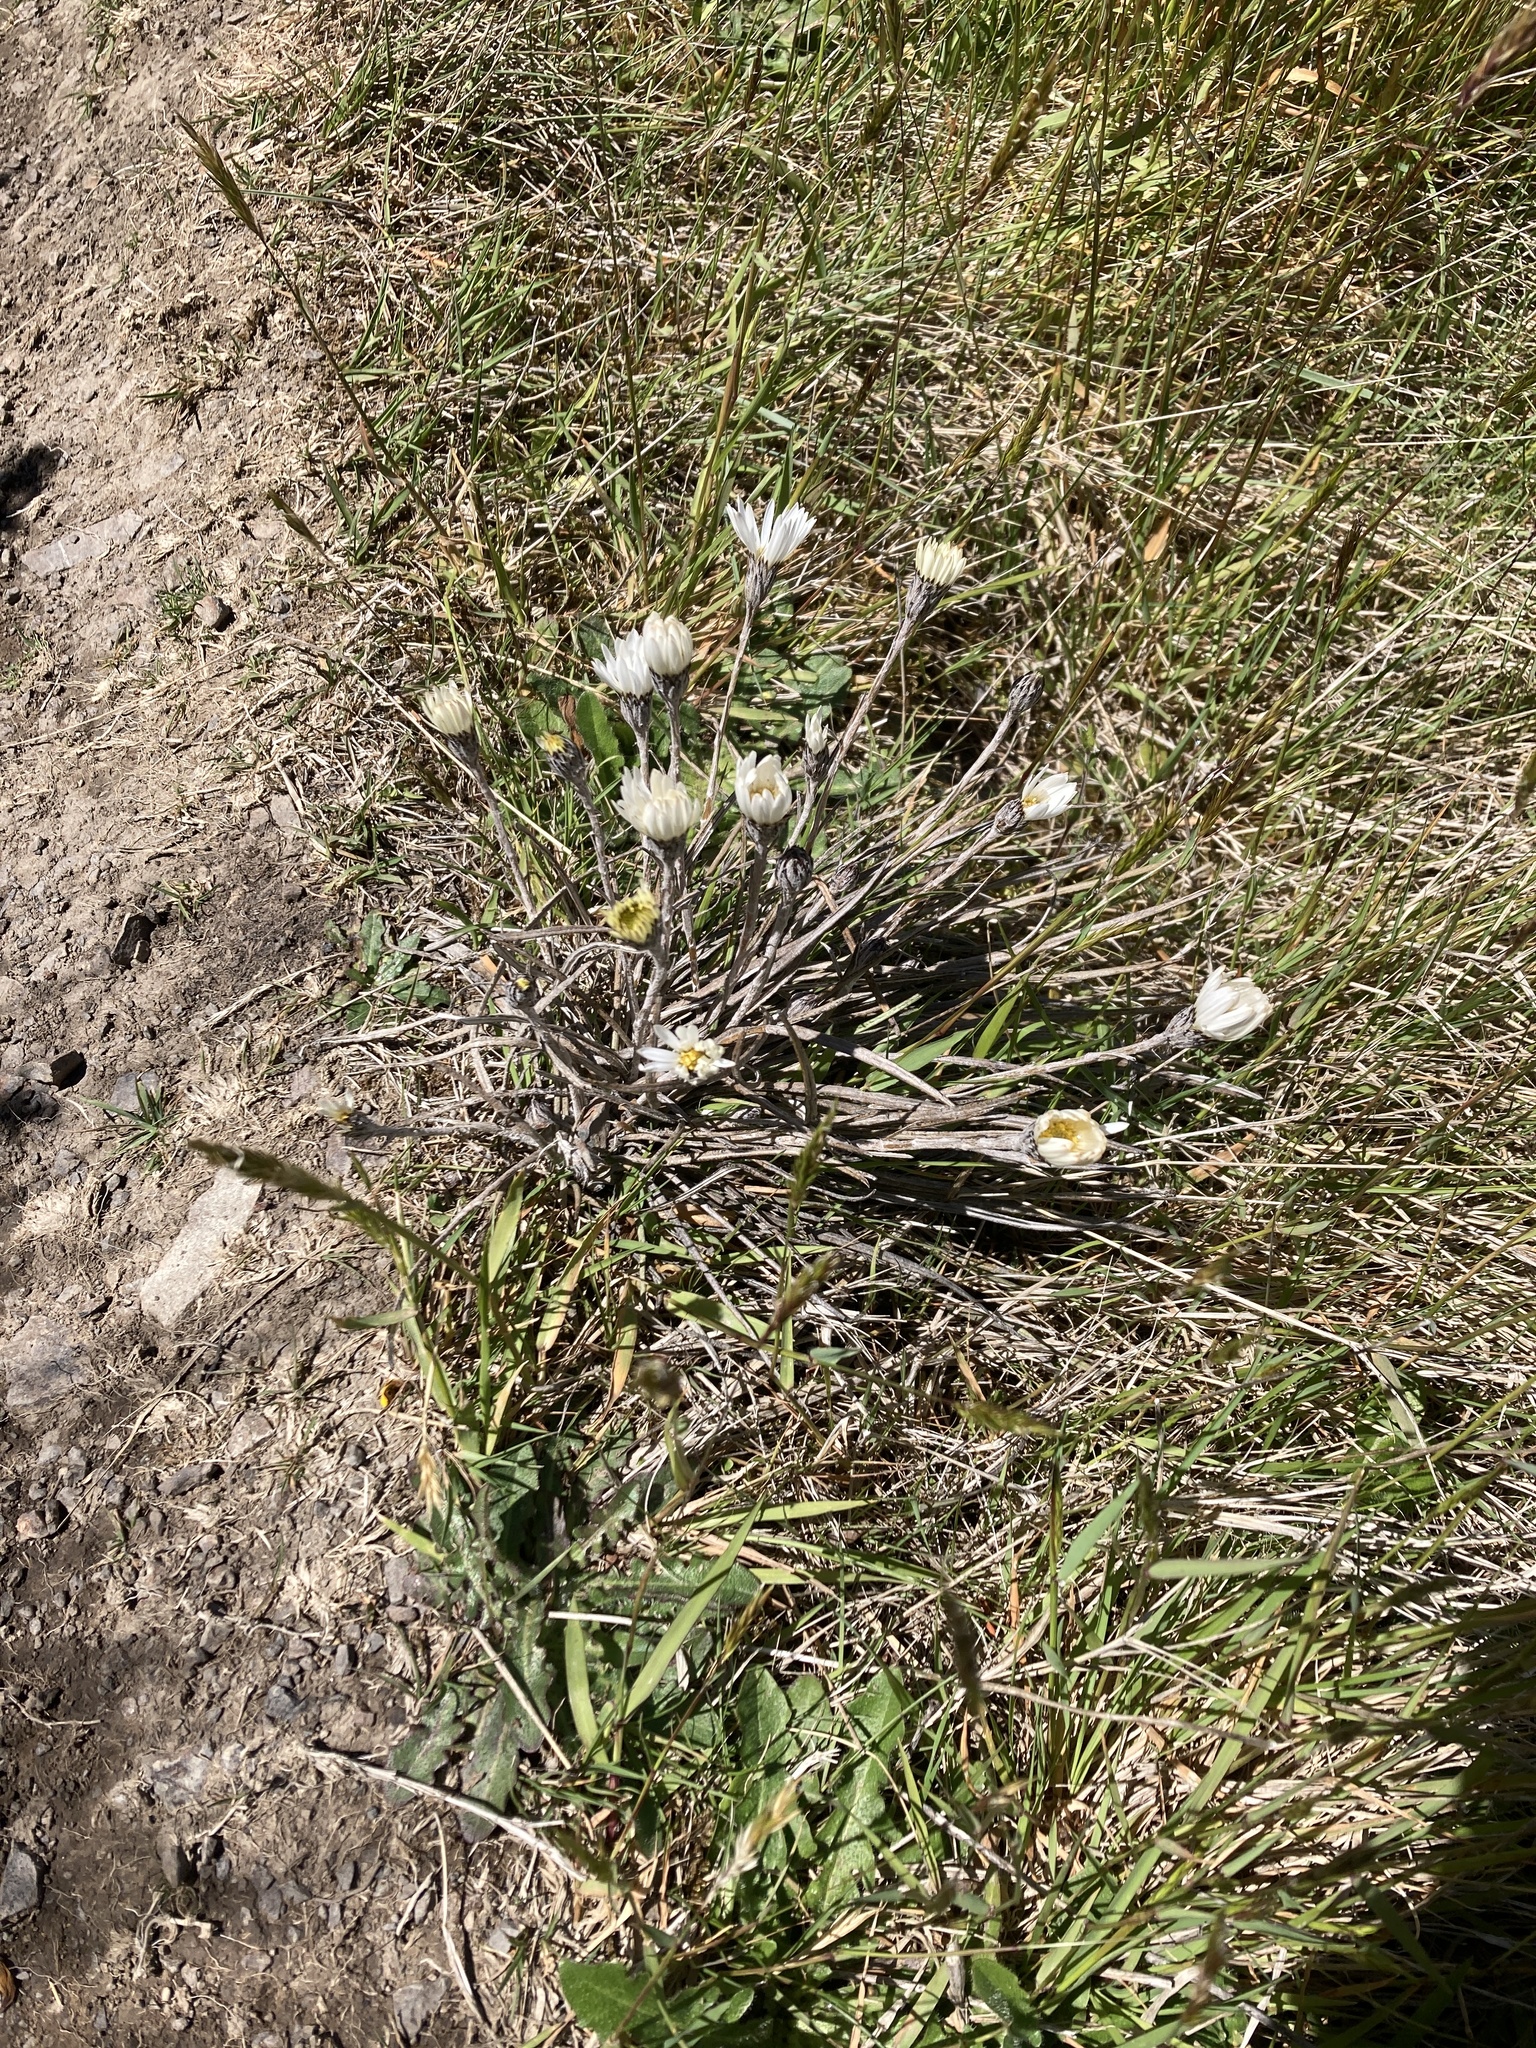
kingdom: Plantae
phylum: Tracheophyta
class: Magnoliopsida
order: Asterales
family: Asteraceae
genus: Celmisia
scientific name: Celmisia gracilenta
